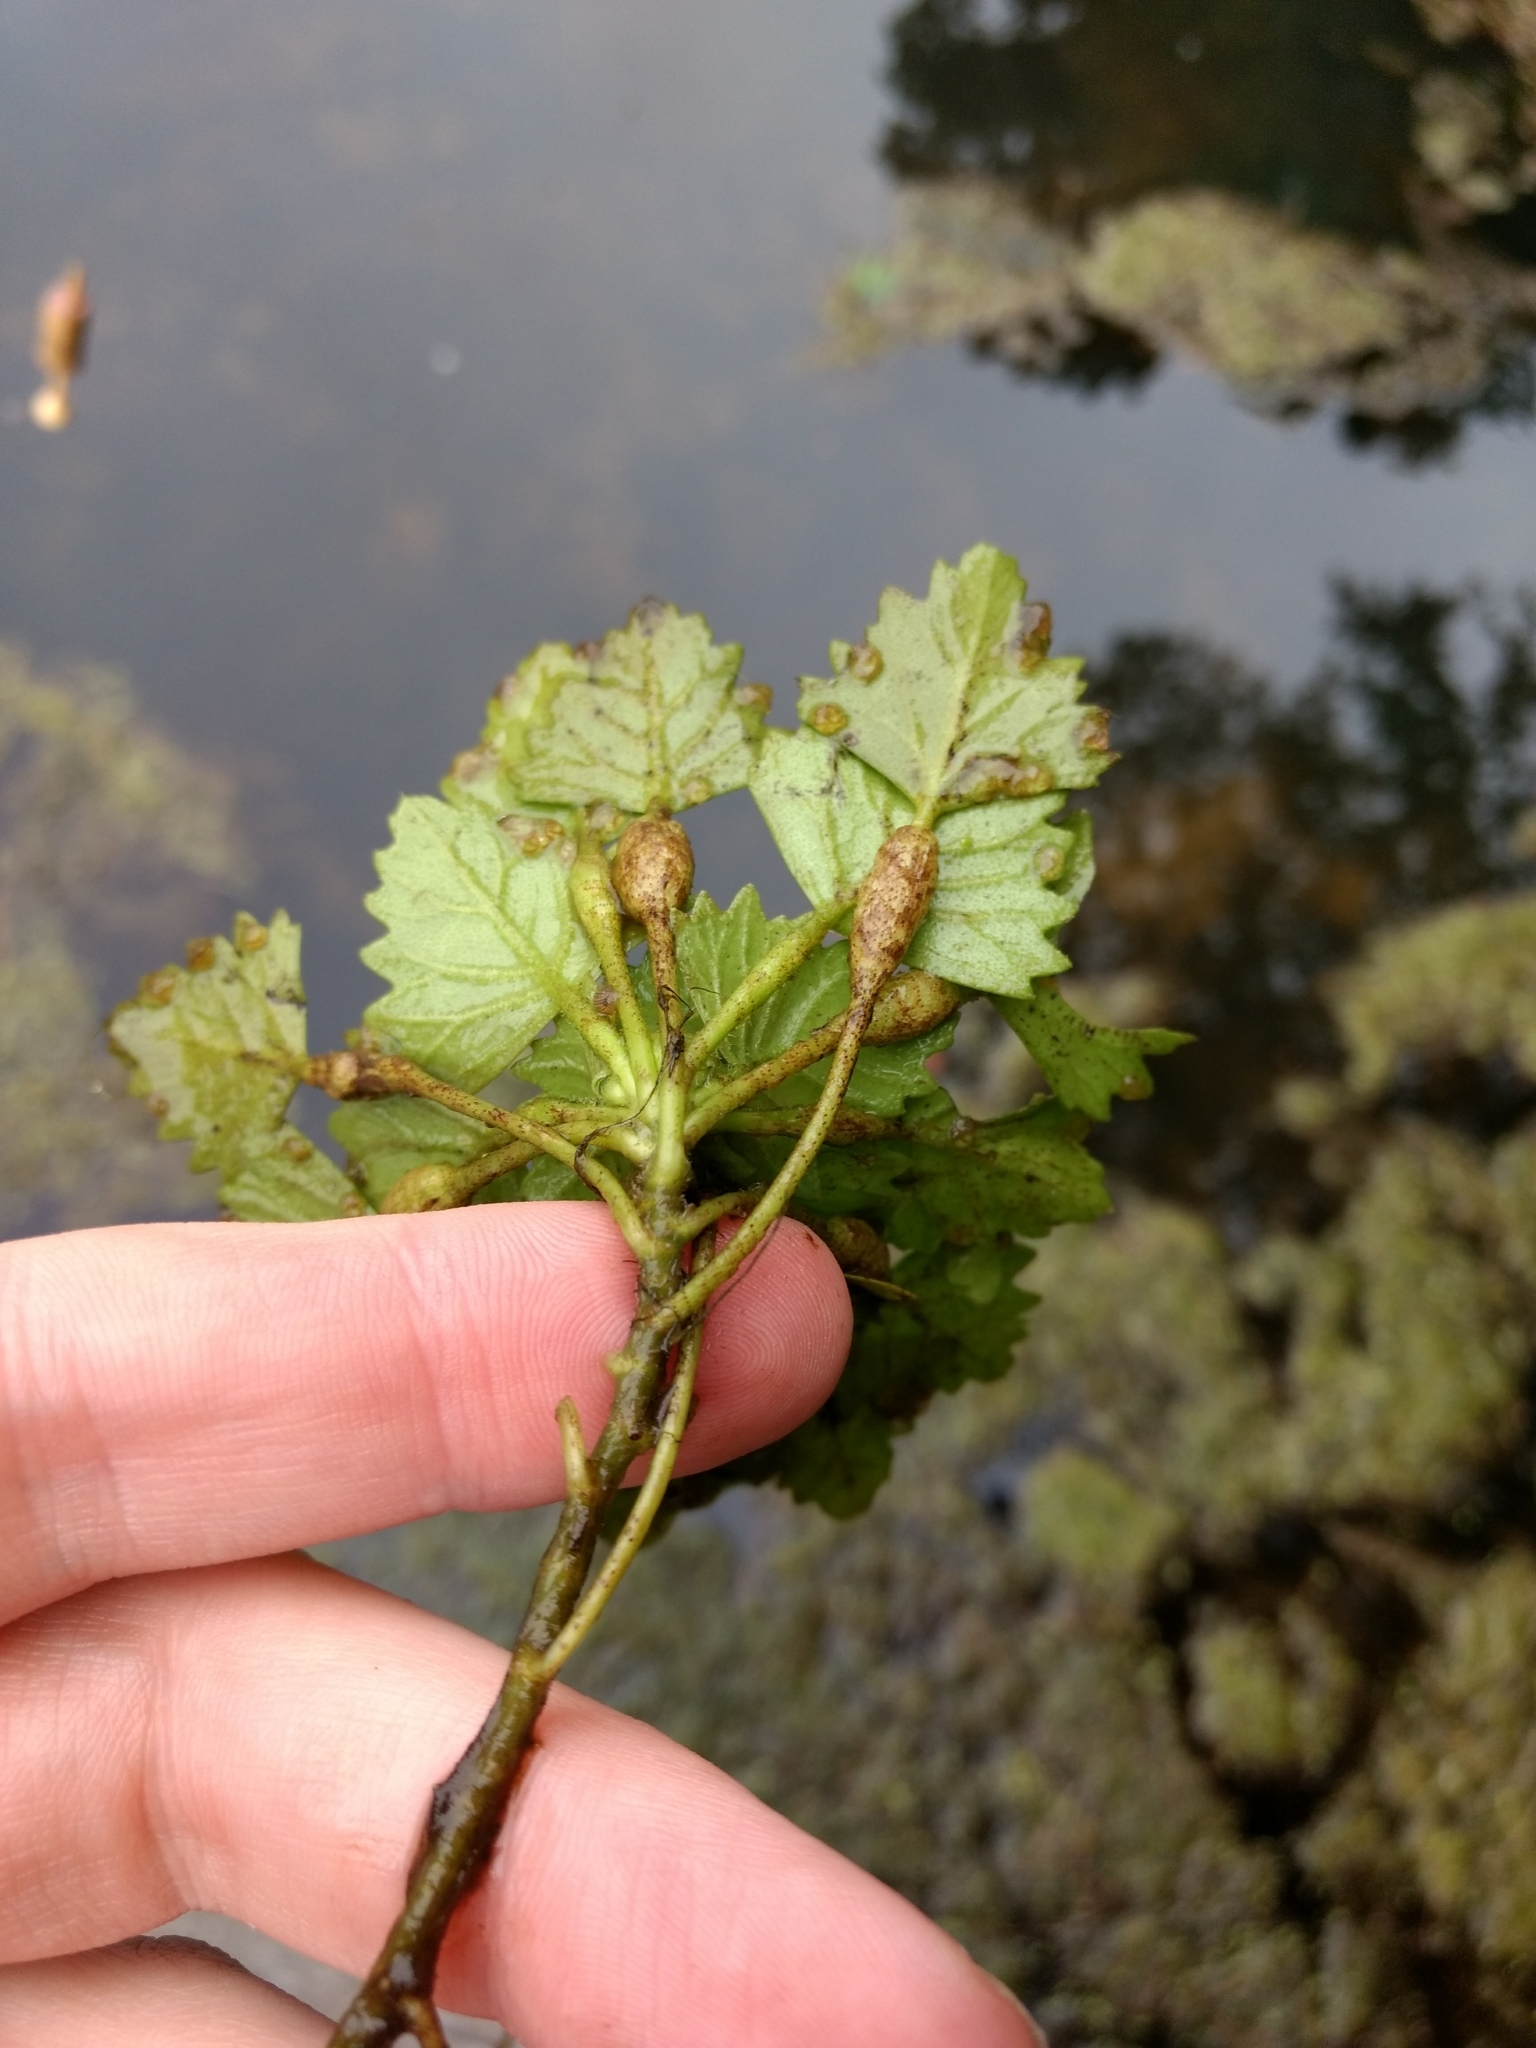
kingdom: Plantae
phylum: Tracheophyta
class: Magnoliopsida
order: Myrtales
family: Lythraceae
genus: Trapa
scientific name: Trapa natans
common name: Water chestnut
